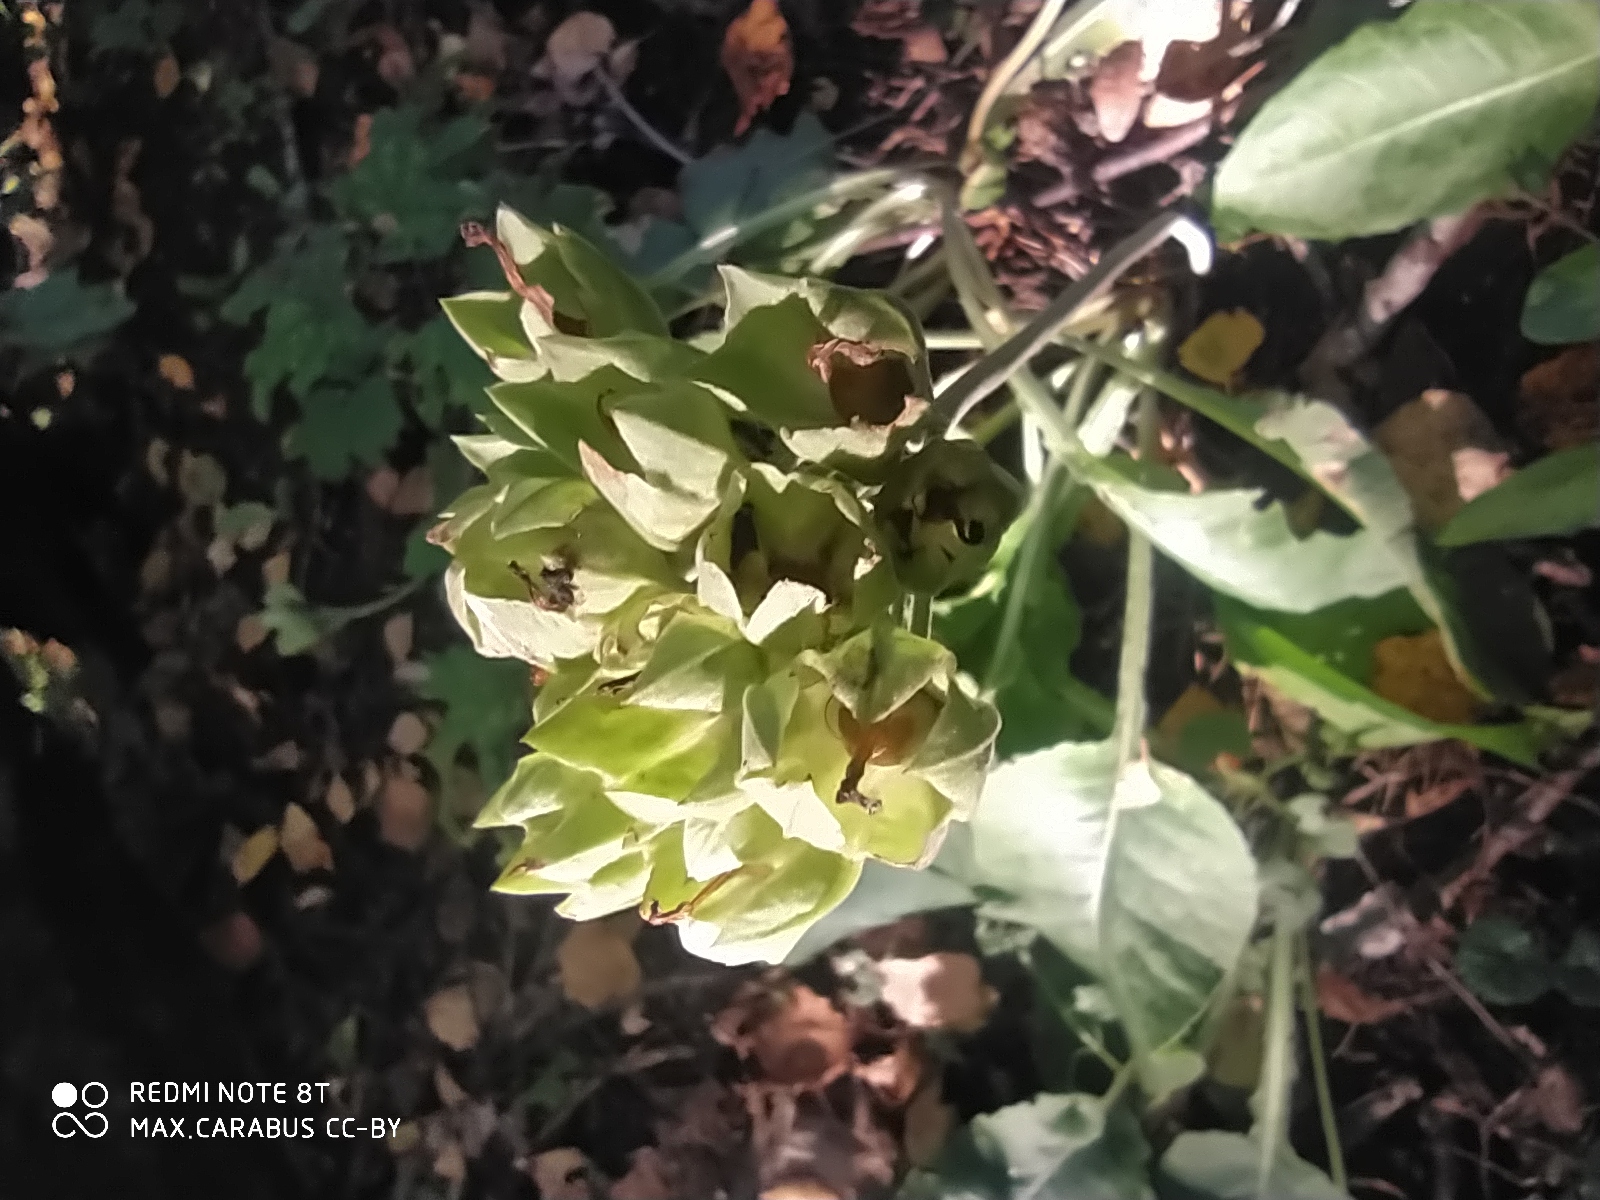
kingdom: Plantae
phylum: Tracheophyta
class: Magnoliopsida
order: Ericales
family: Primulaceae
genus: Primula
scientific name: Primula veris
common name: Cowslip
